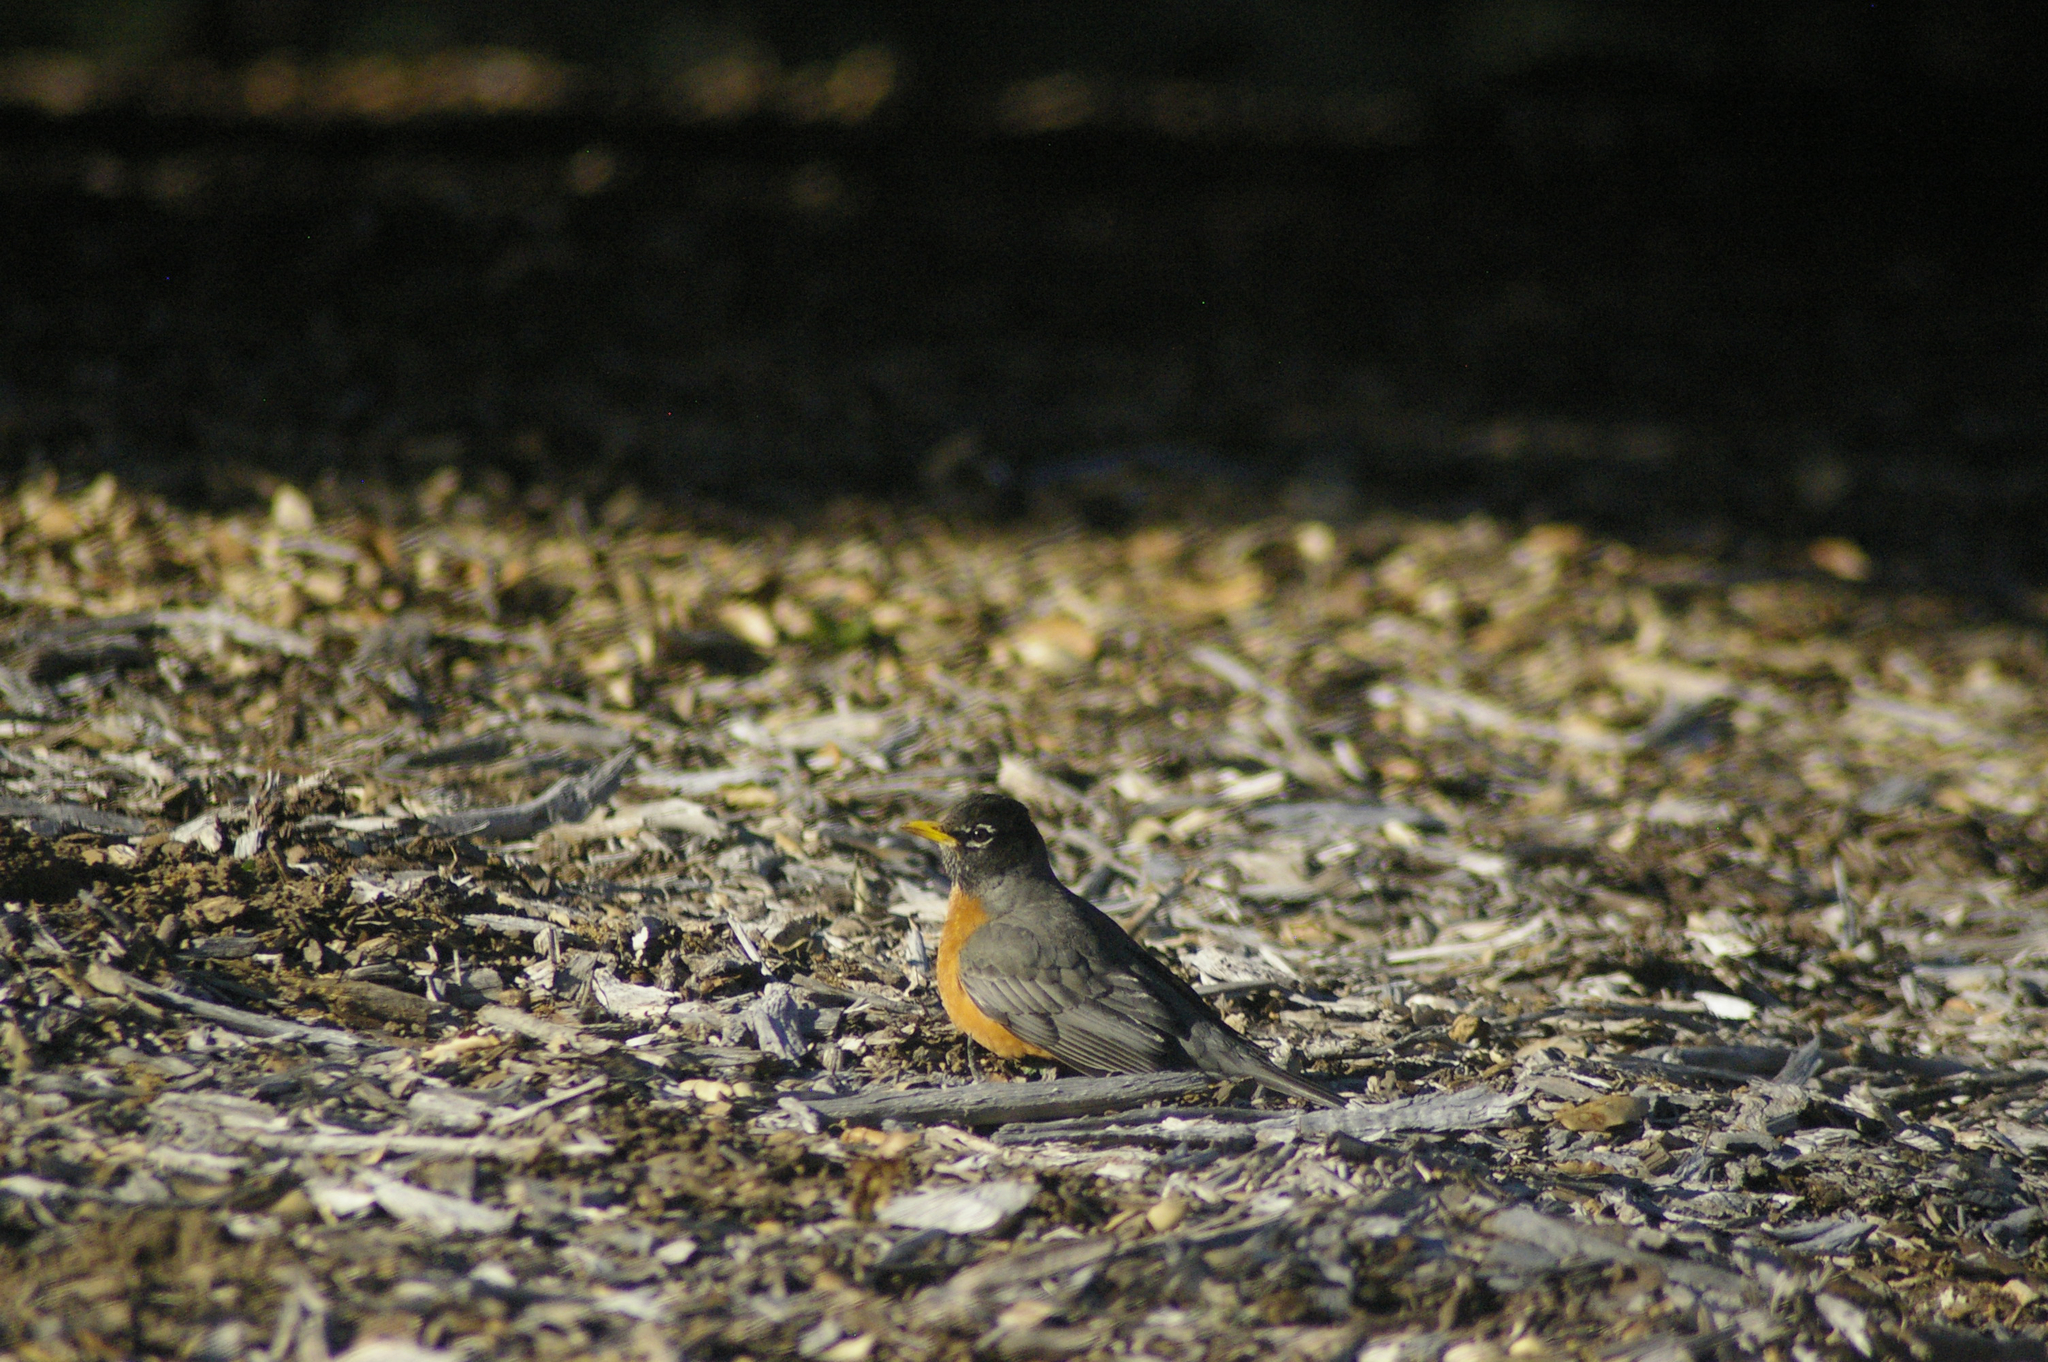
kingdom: Animalia
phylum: Chordata
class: Aves
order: Passeriformes
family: Turdidae
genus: Turdus
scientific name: Turdus migratorius
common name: American robin
